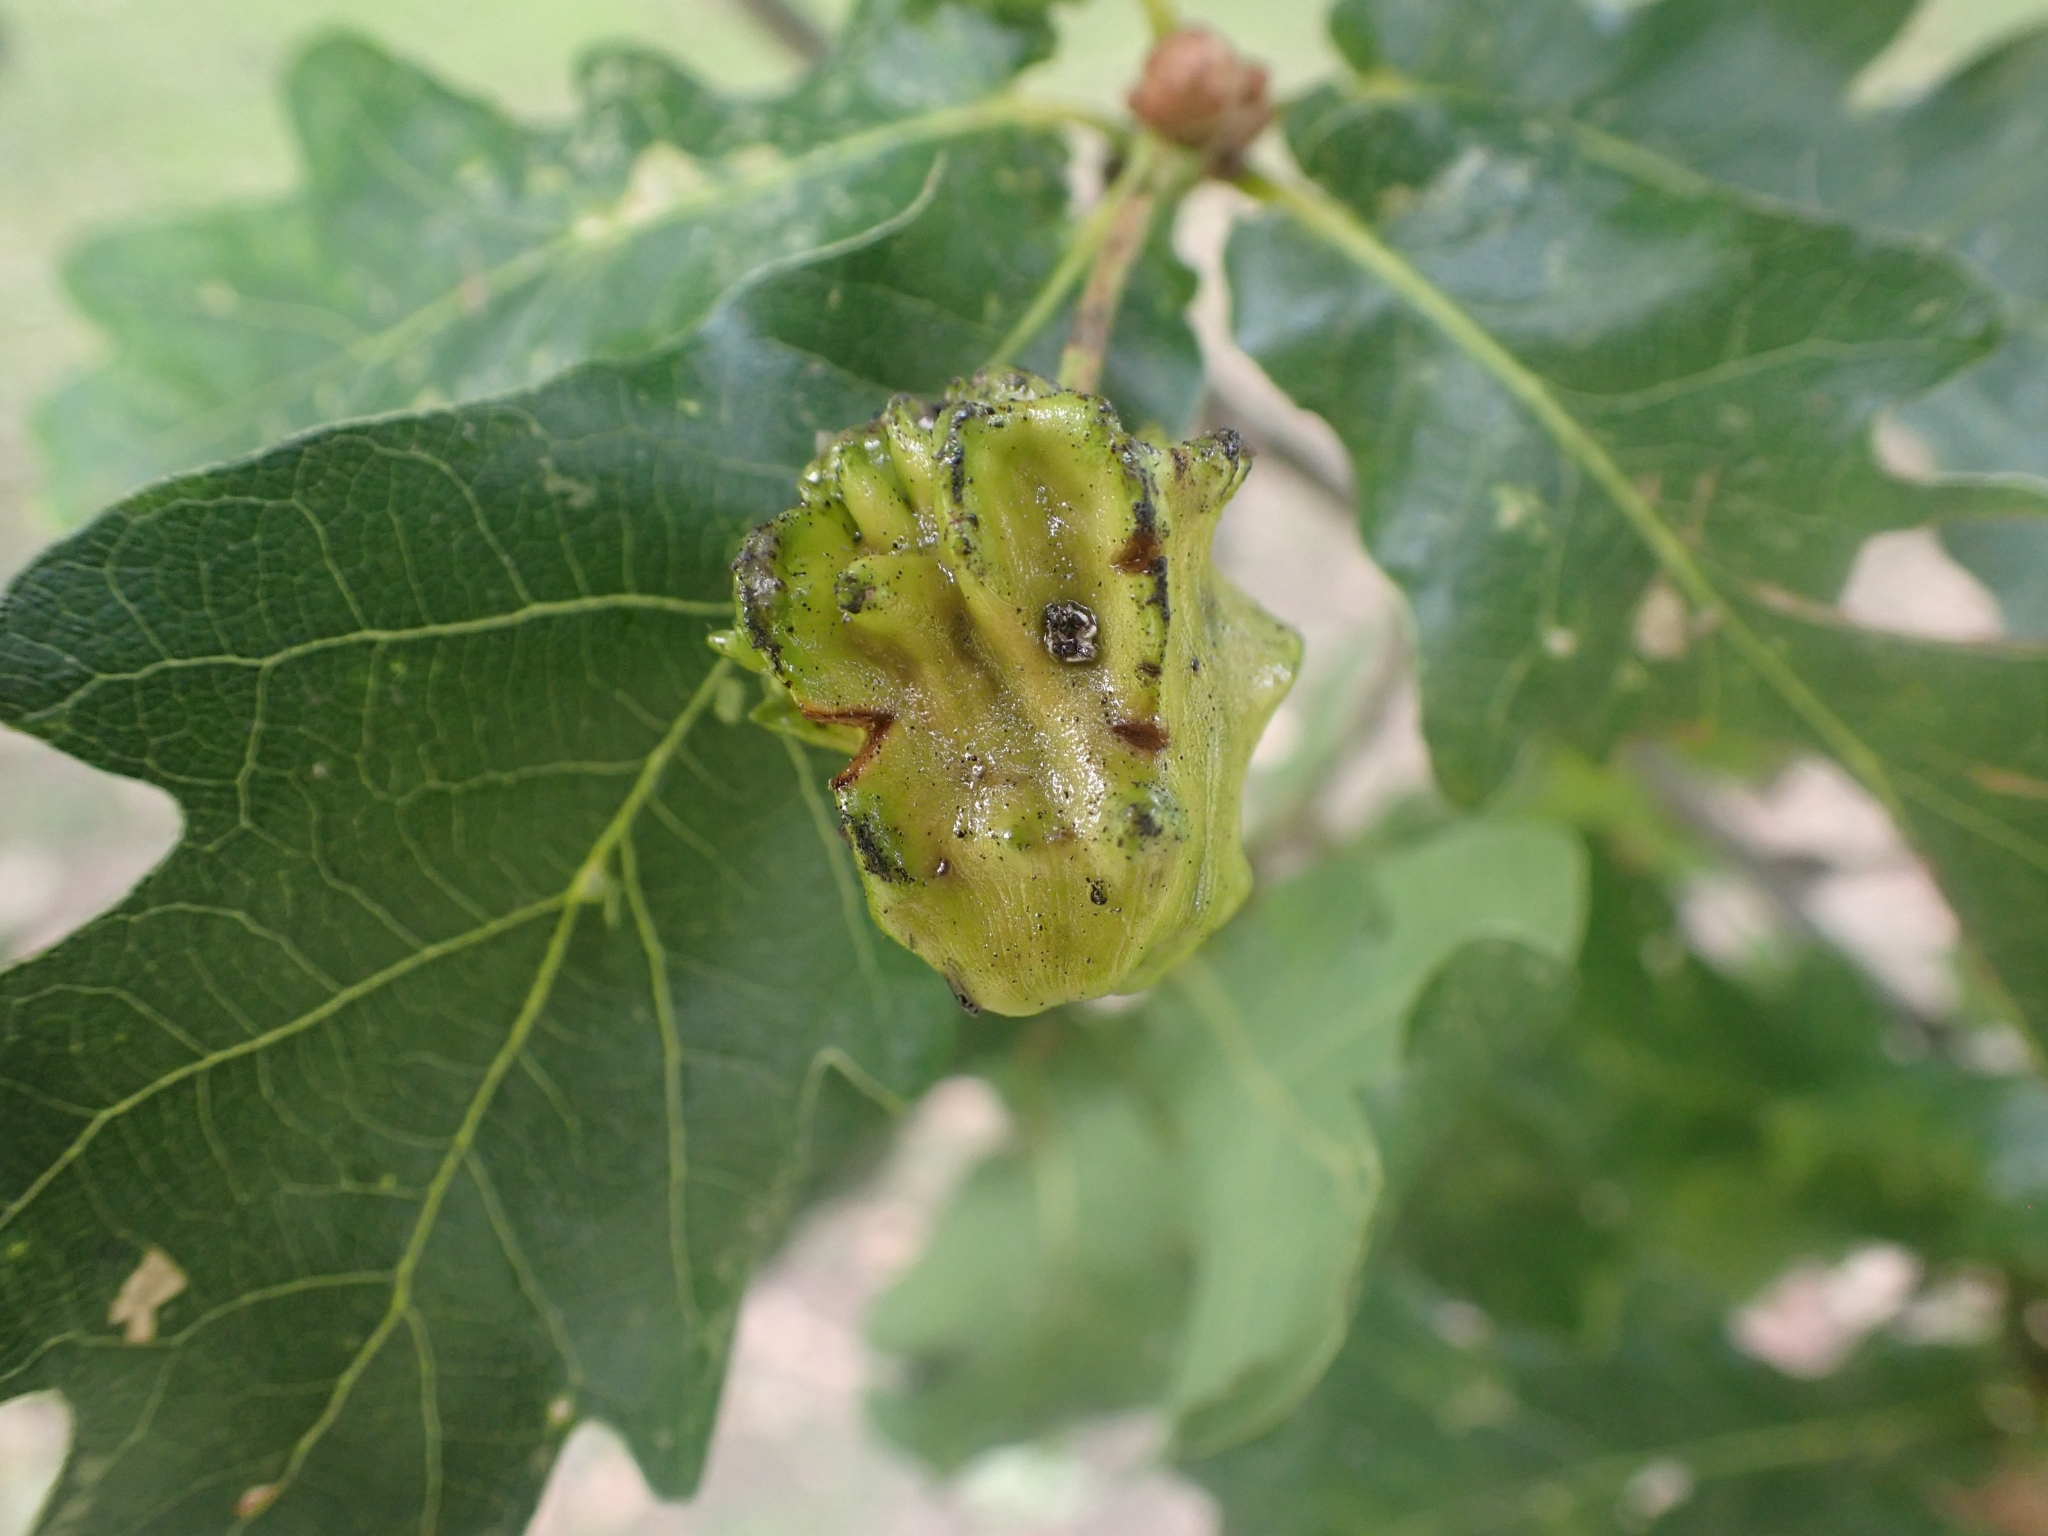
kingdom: Animalia
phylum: Arthropoda
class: Insecta
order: Hymenoptera
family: Cynipidae
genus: Andricus
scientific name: Andricus quercuscalicis
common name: Knopper gall
